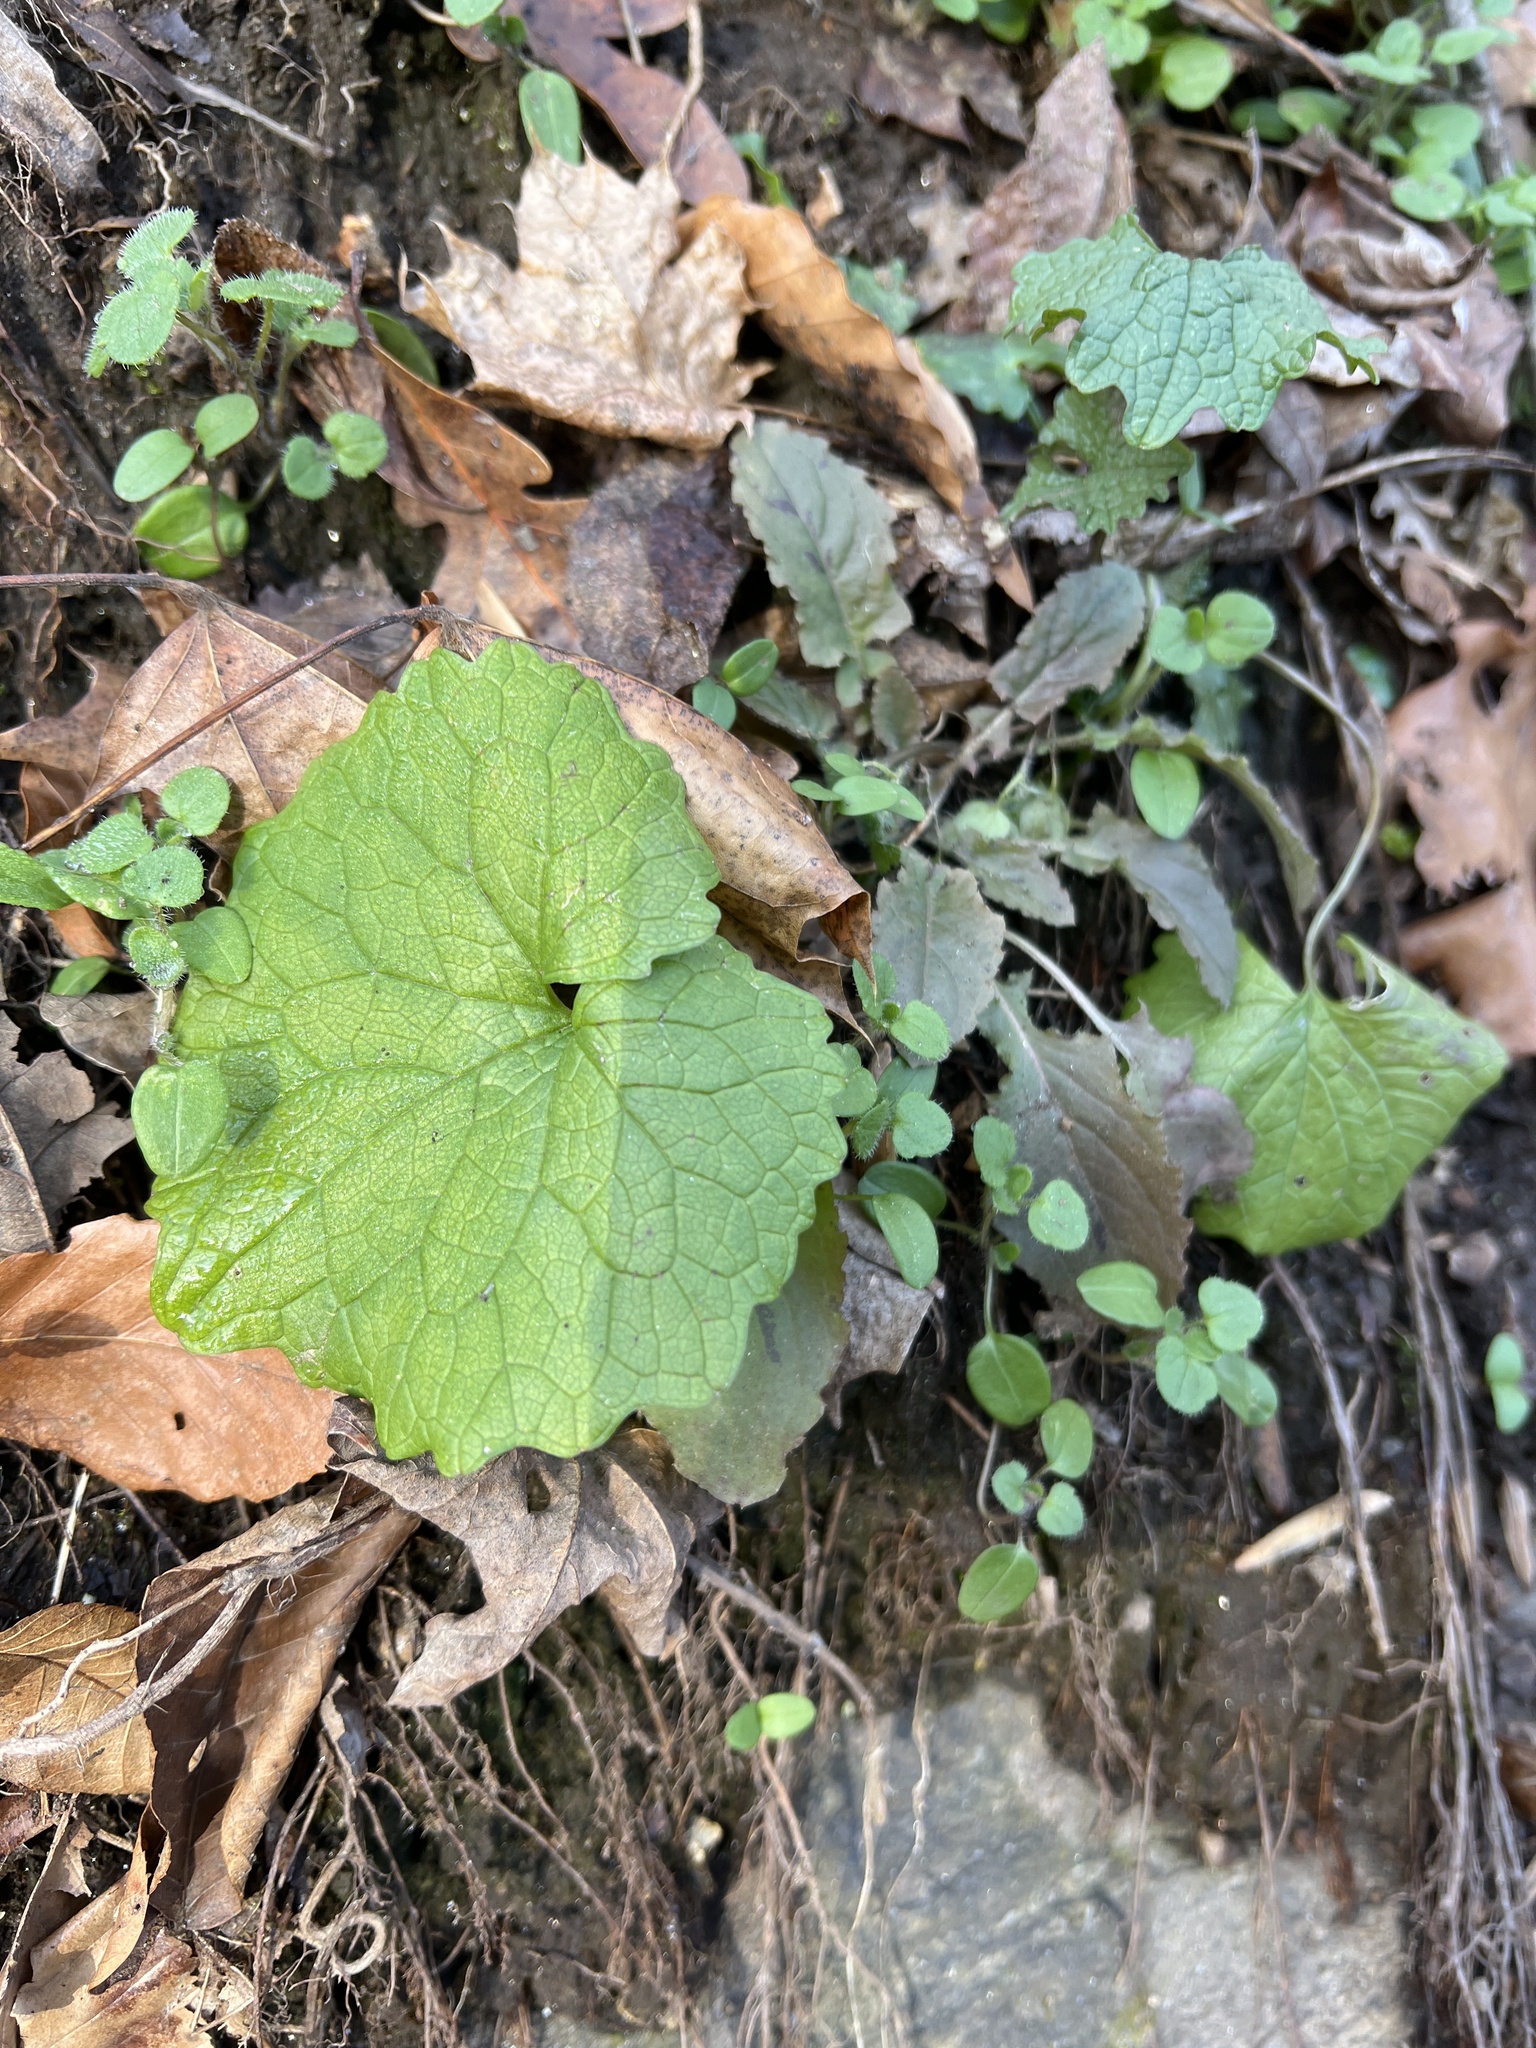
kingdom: Plantae
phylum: Tracheophyta
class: Magnoliopsida
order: Brassicales
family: Brassicaceae
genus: Alliaria
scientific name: Alliaria petiolata
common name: Garlic mustard
